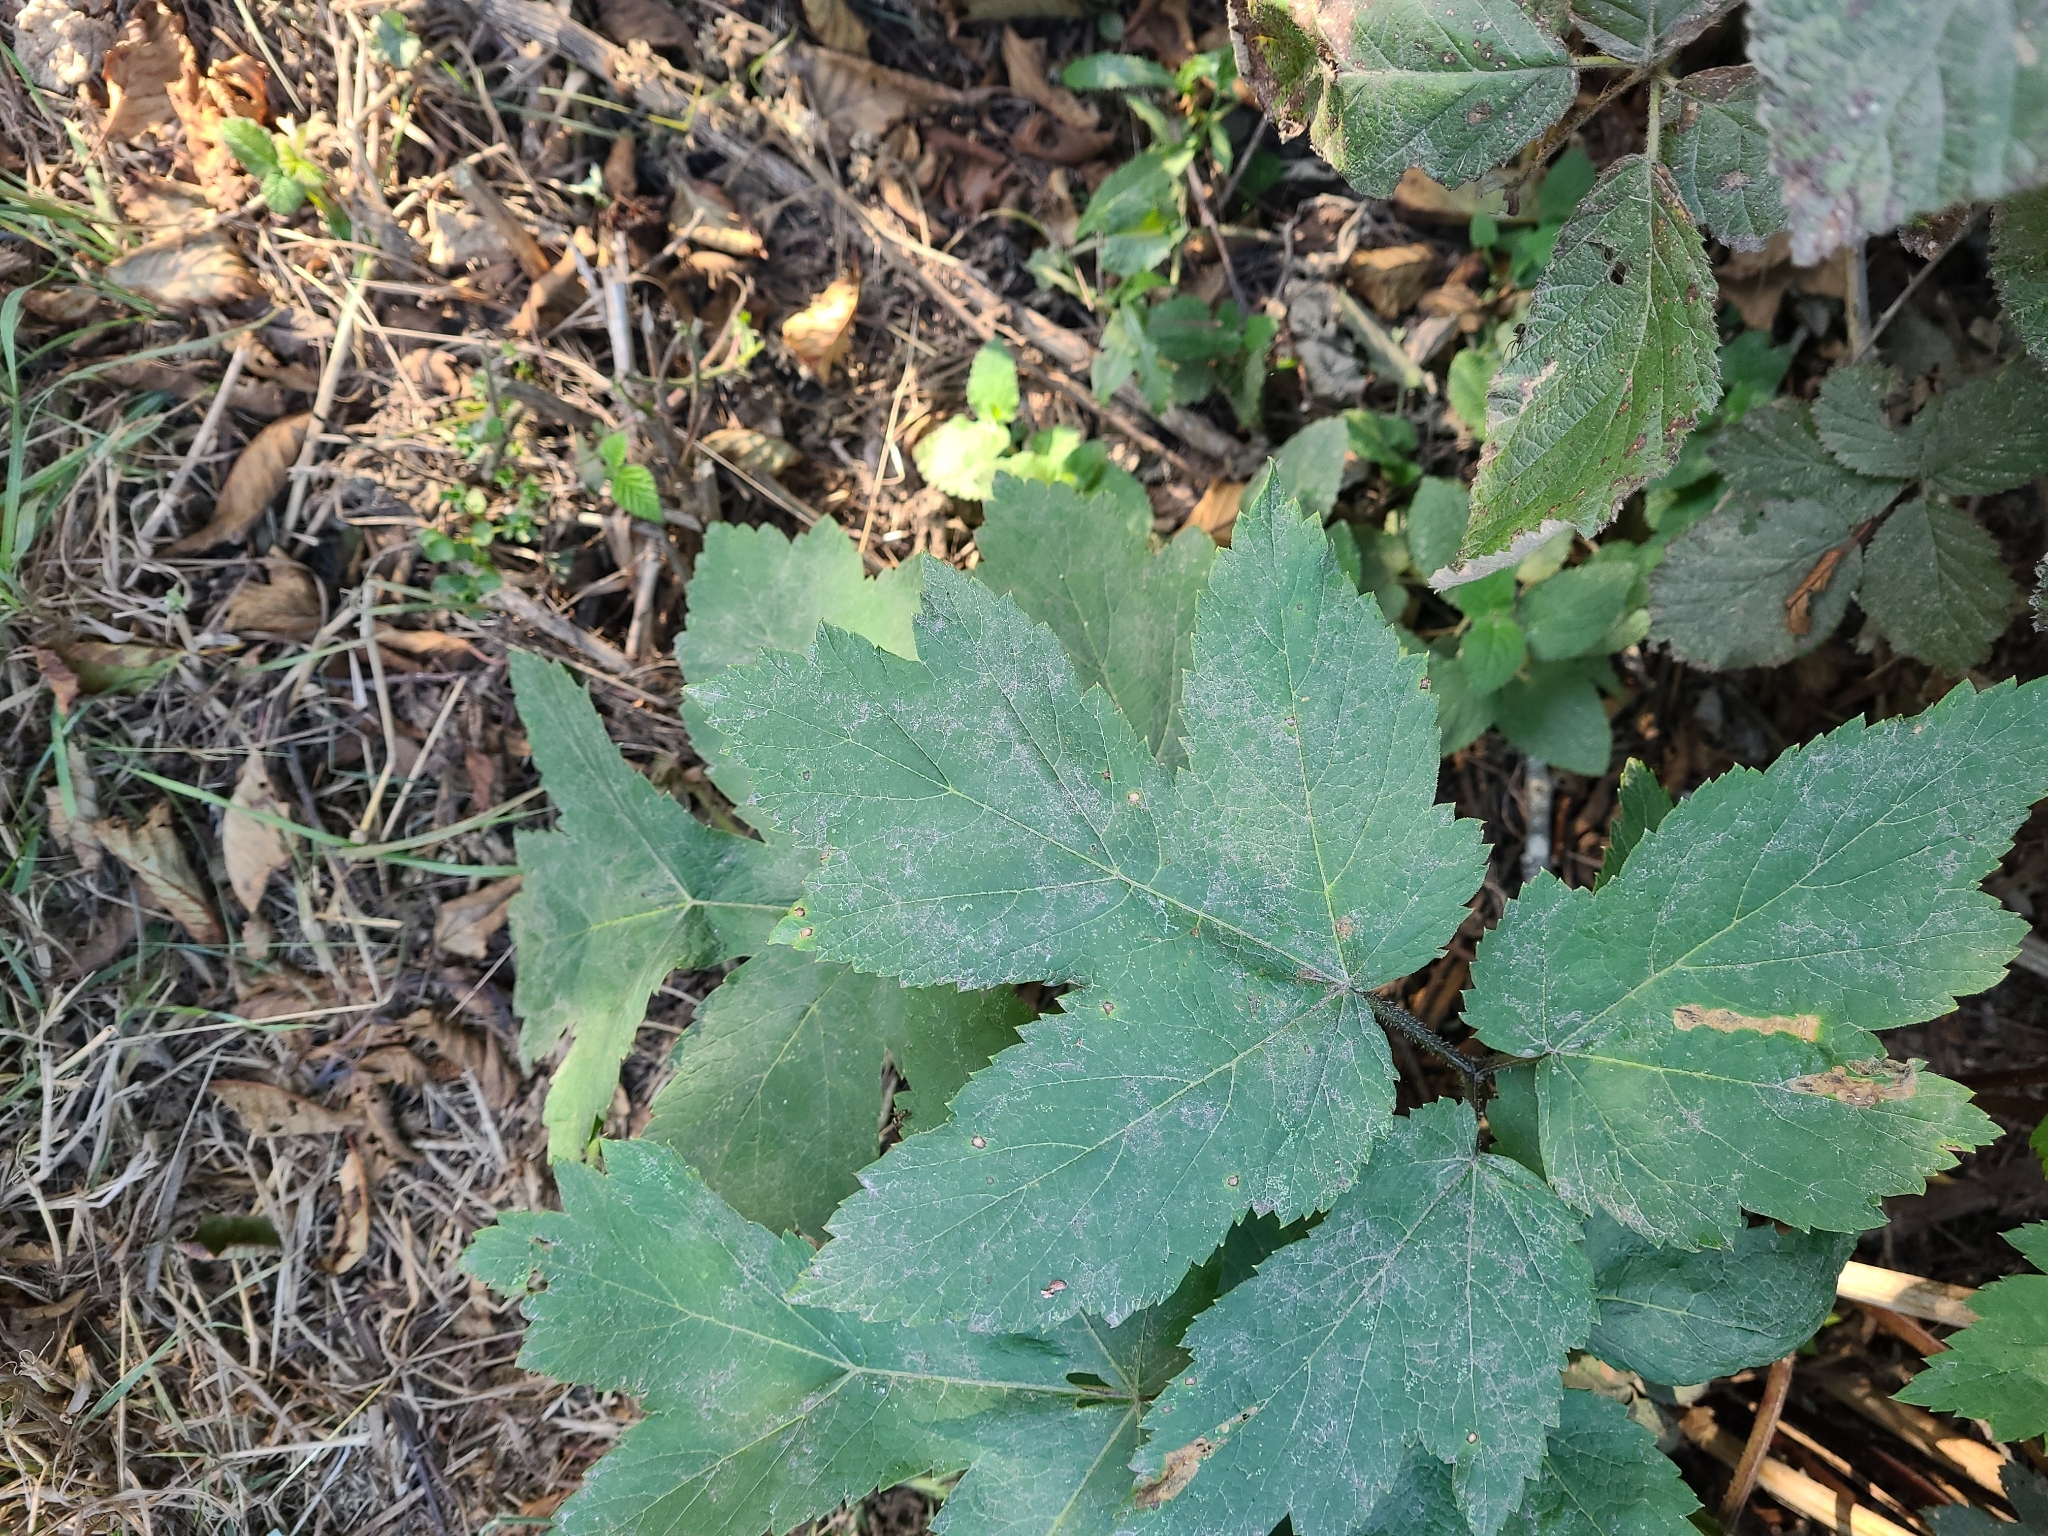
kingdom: Plantae
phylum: Tracheophyta
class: Magnoliopsida
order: Apiales
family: Apiaceae
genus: Heracleum
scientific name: Heracleum maximum
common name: American cow parsnip
